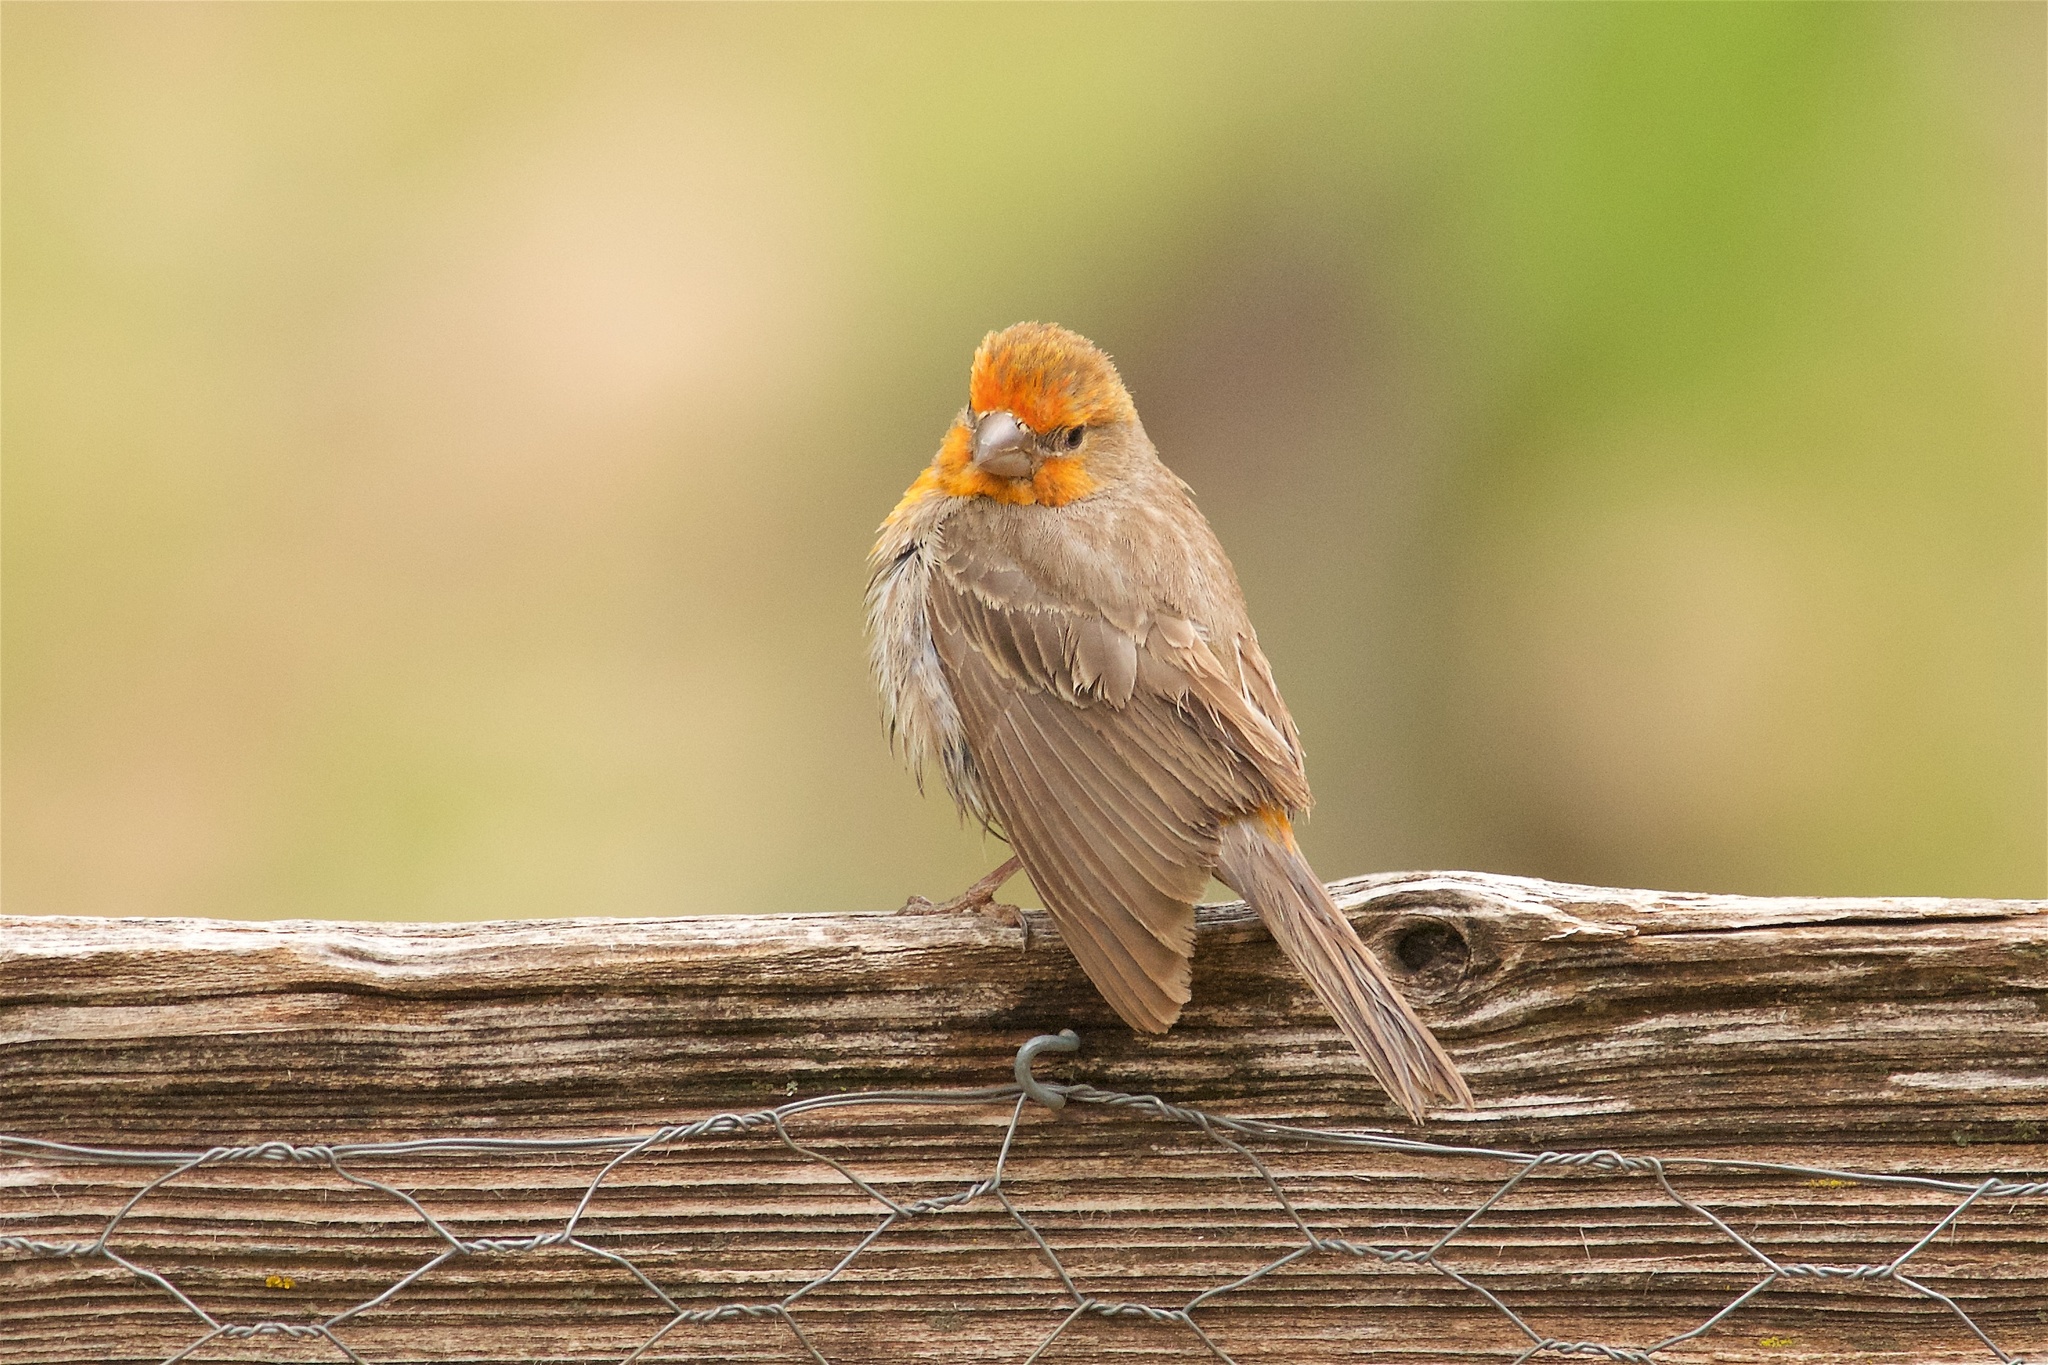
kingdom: Animalia
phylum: Chordata
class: Aves
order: Passeriformes
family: Fringillidae
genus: Haemorhous
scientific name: Haemorhous mexicanus
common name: House finch
